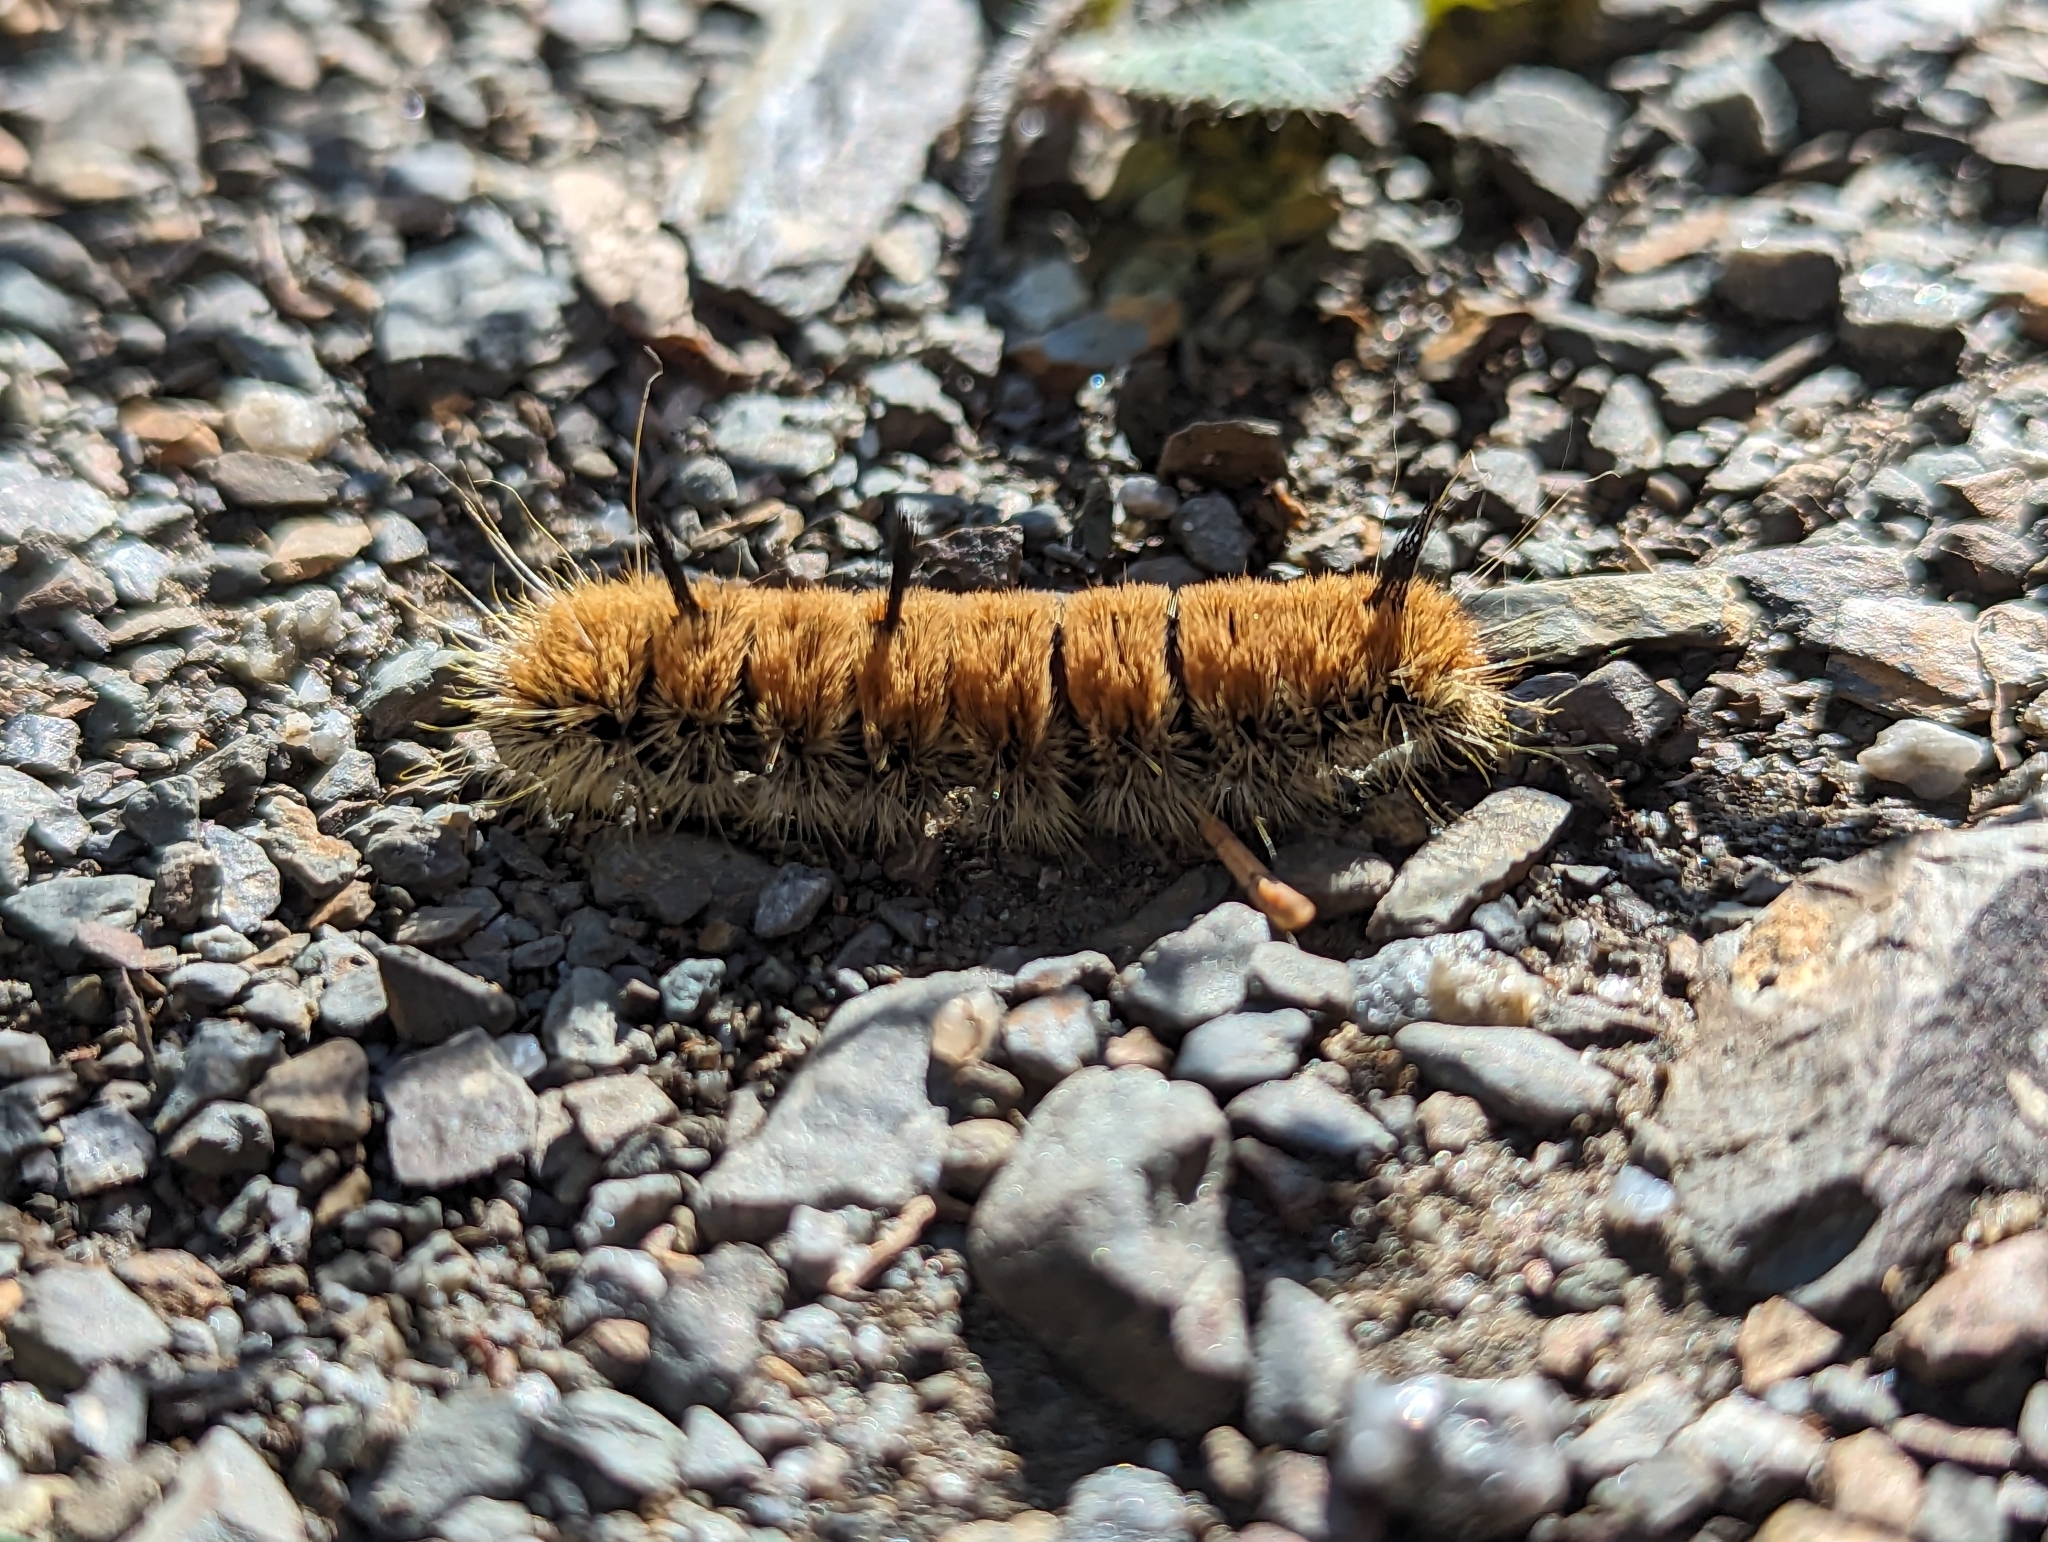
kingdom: Animalia
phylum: Arthropoda
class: Insecta
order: Lepidoptera
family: Noctuidae
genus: Acronicta
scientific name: Acronicta insita
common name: Large gray dagger
